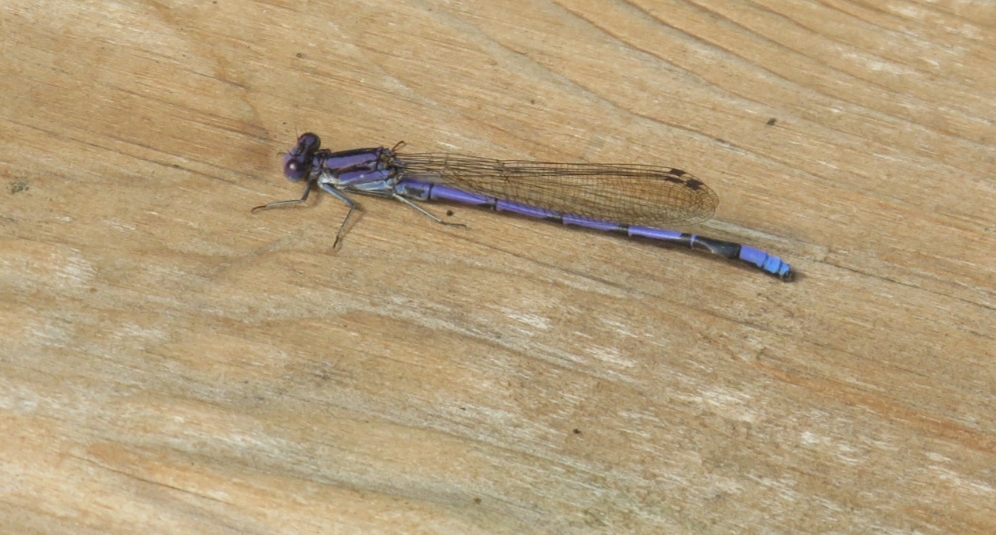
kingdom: Animalia
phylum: Arthropoda
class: Insecta
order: Odonata
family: Coenagrionidae
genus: Argia
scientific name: Argia fumipennis
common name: Variable dancer
